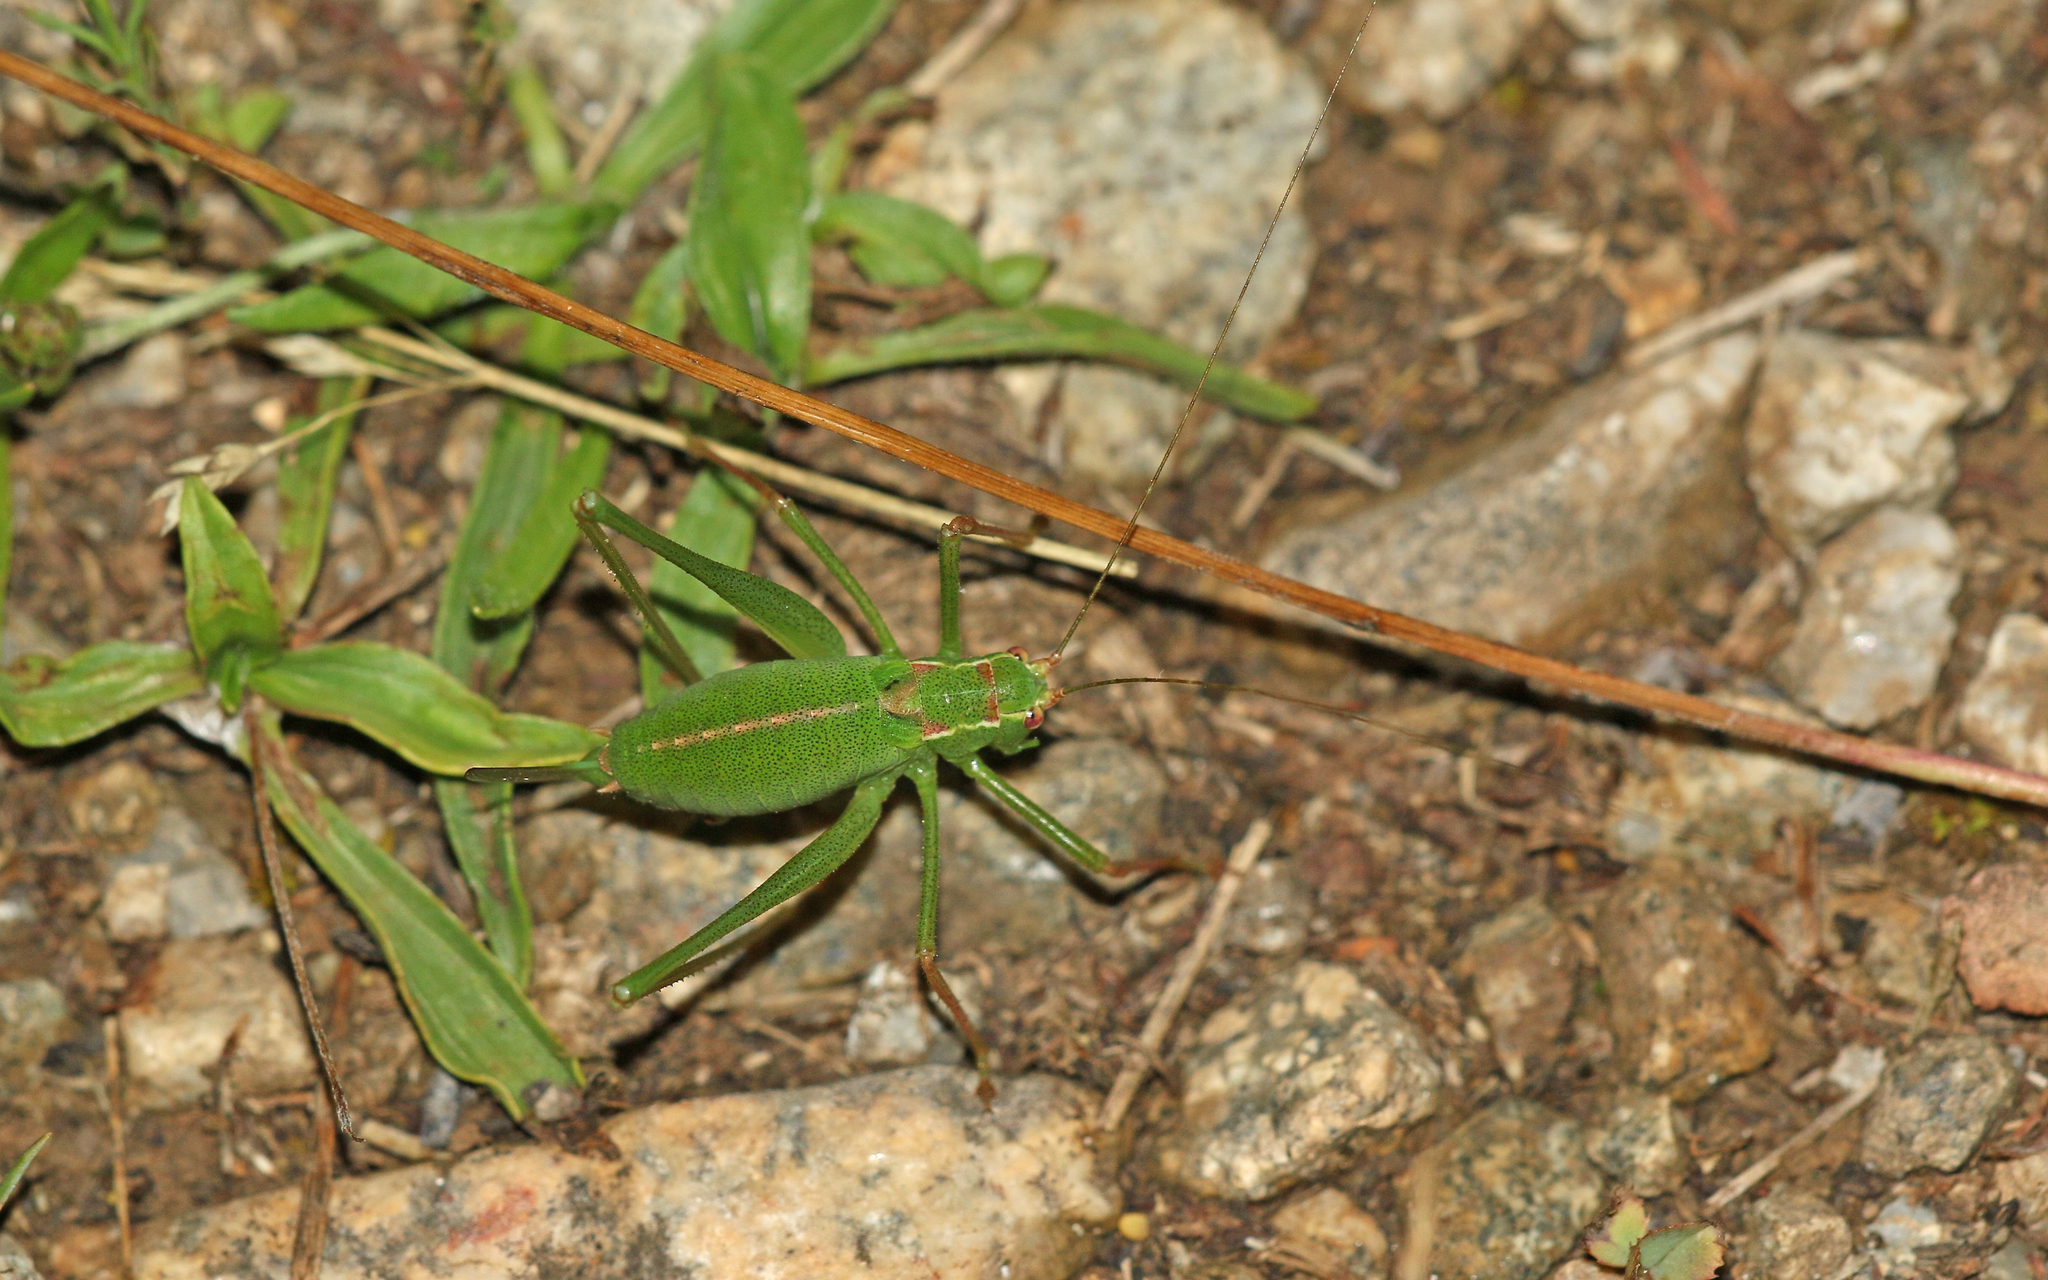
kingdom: Animalia
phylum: Arthropoda
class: Insecta
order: Orthoptera
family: Tettigoniidae
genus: Leptophyes
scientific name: Leptophyes punctatissima
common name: Speckled bush-cricket
